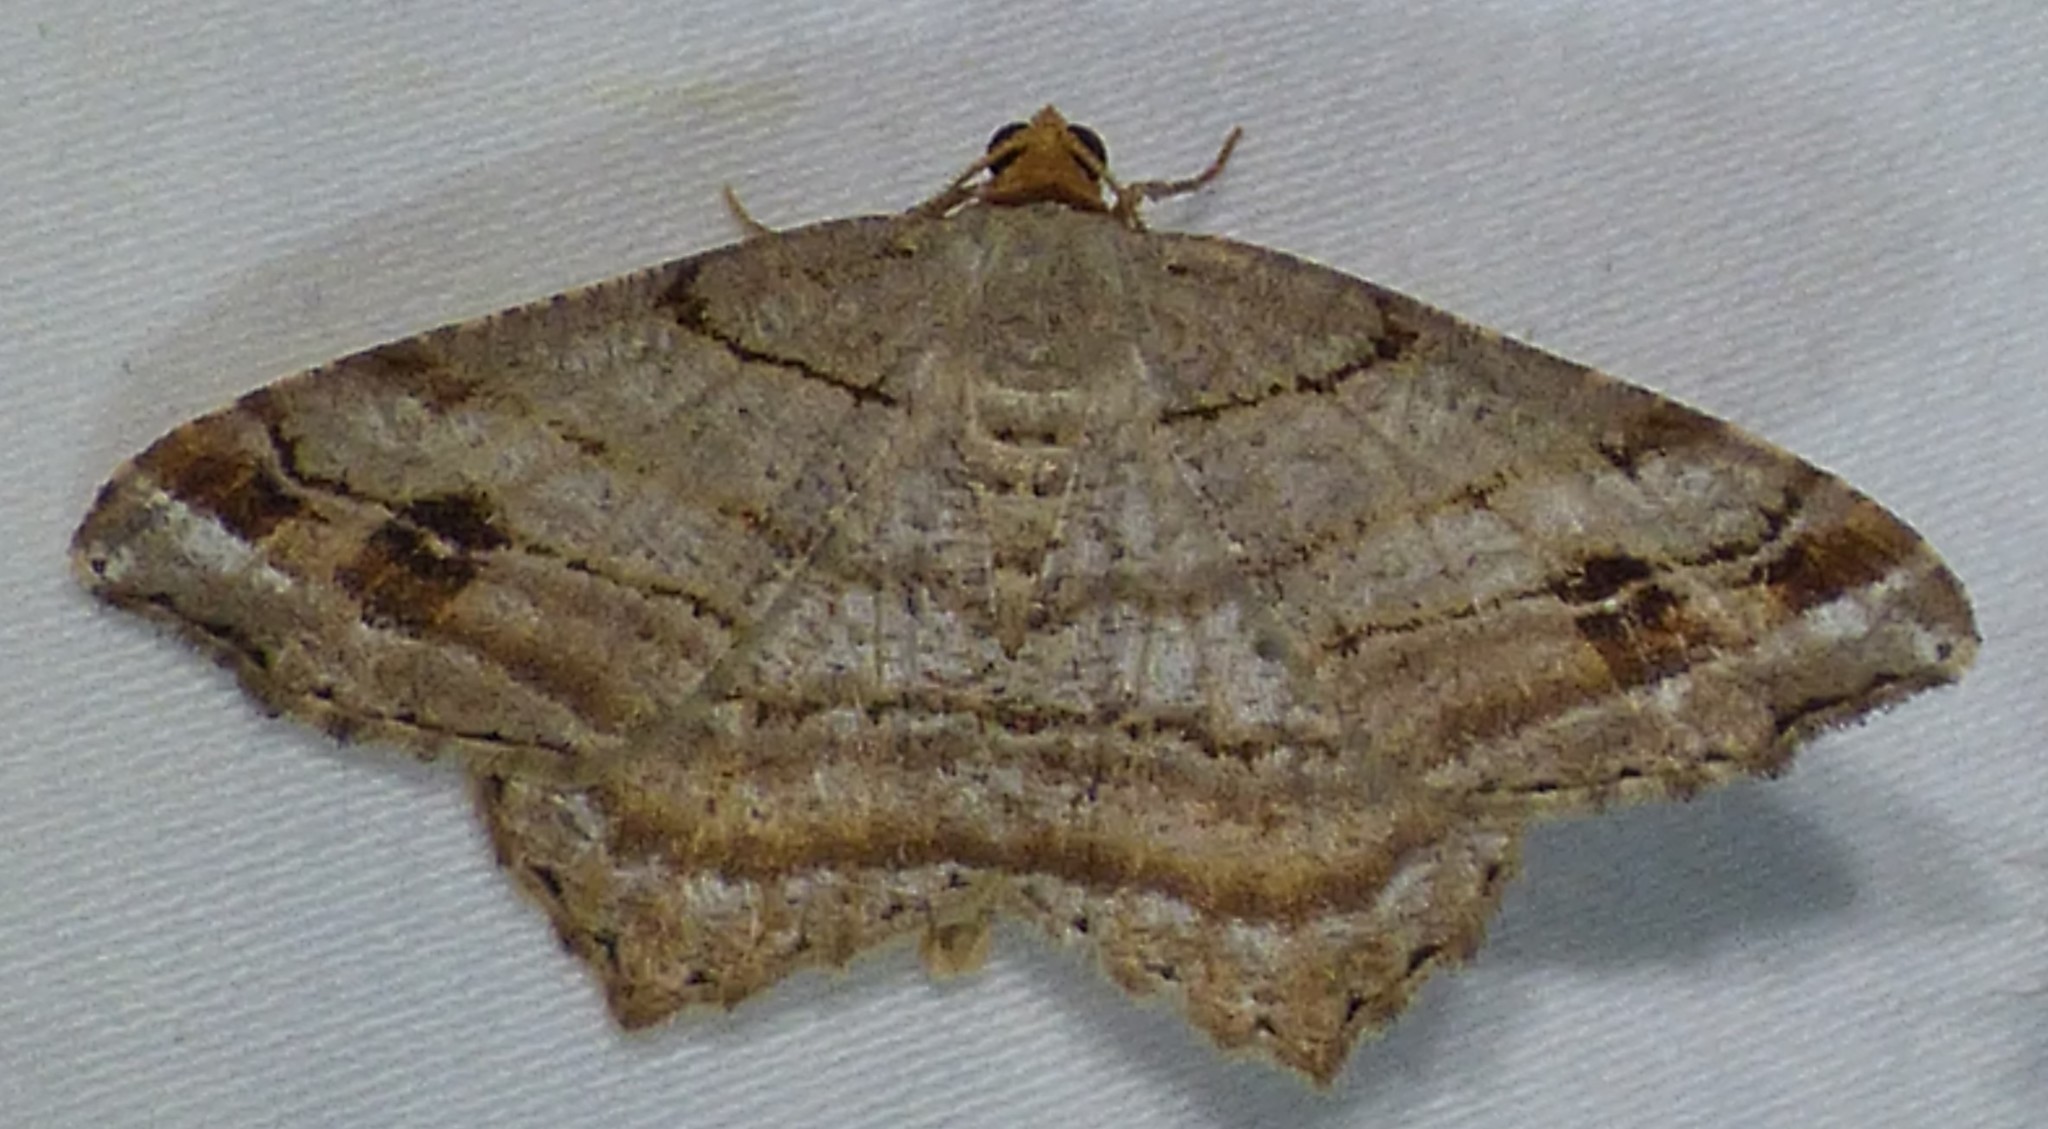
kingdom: Animalia
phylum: Arthropoda
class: Insecta
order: Lepidoptera
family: Geometridae
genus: Macaria
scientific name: Macaria multilineata
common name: Many-lined angle
